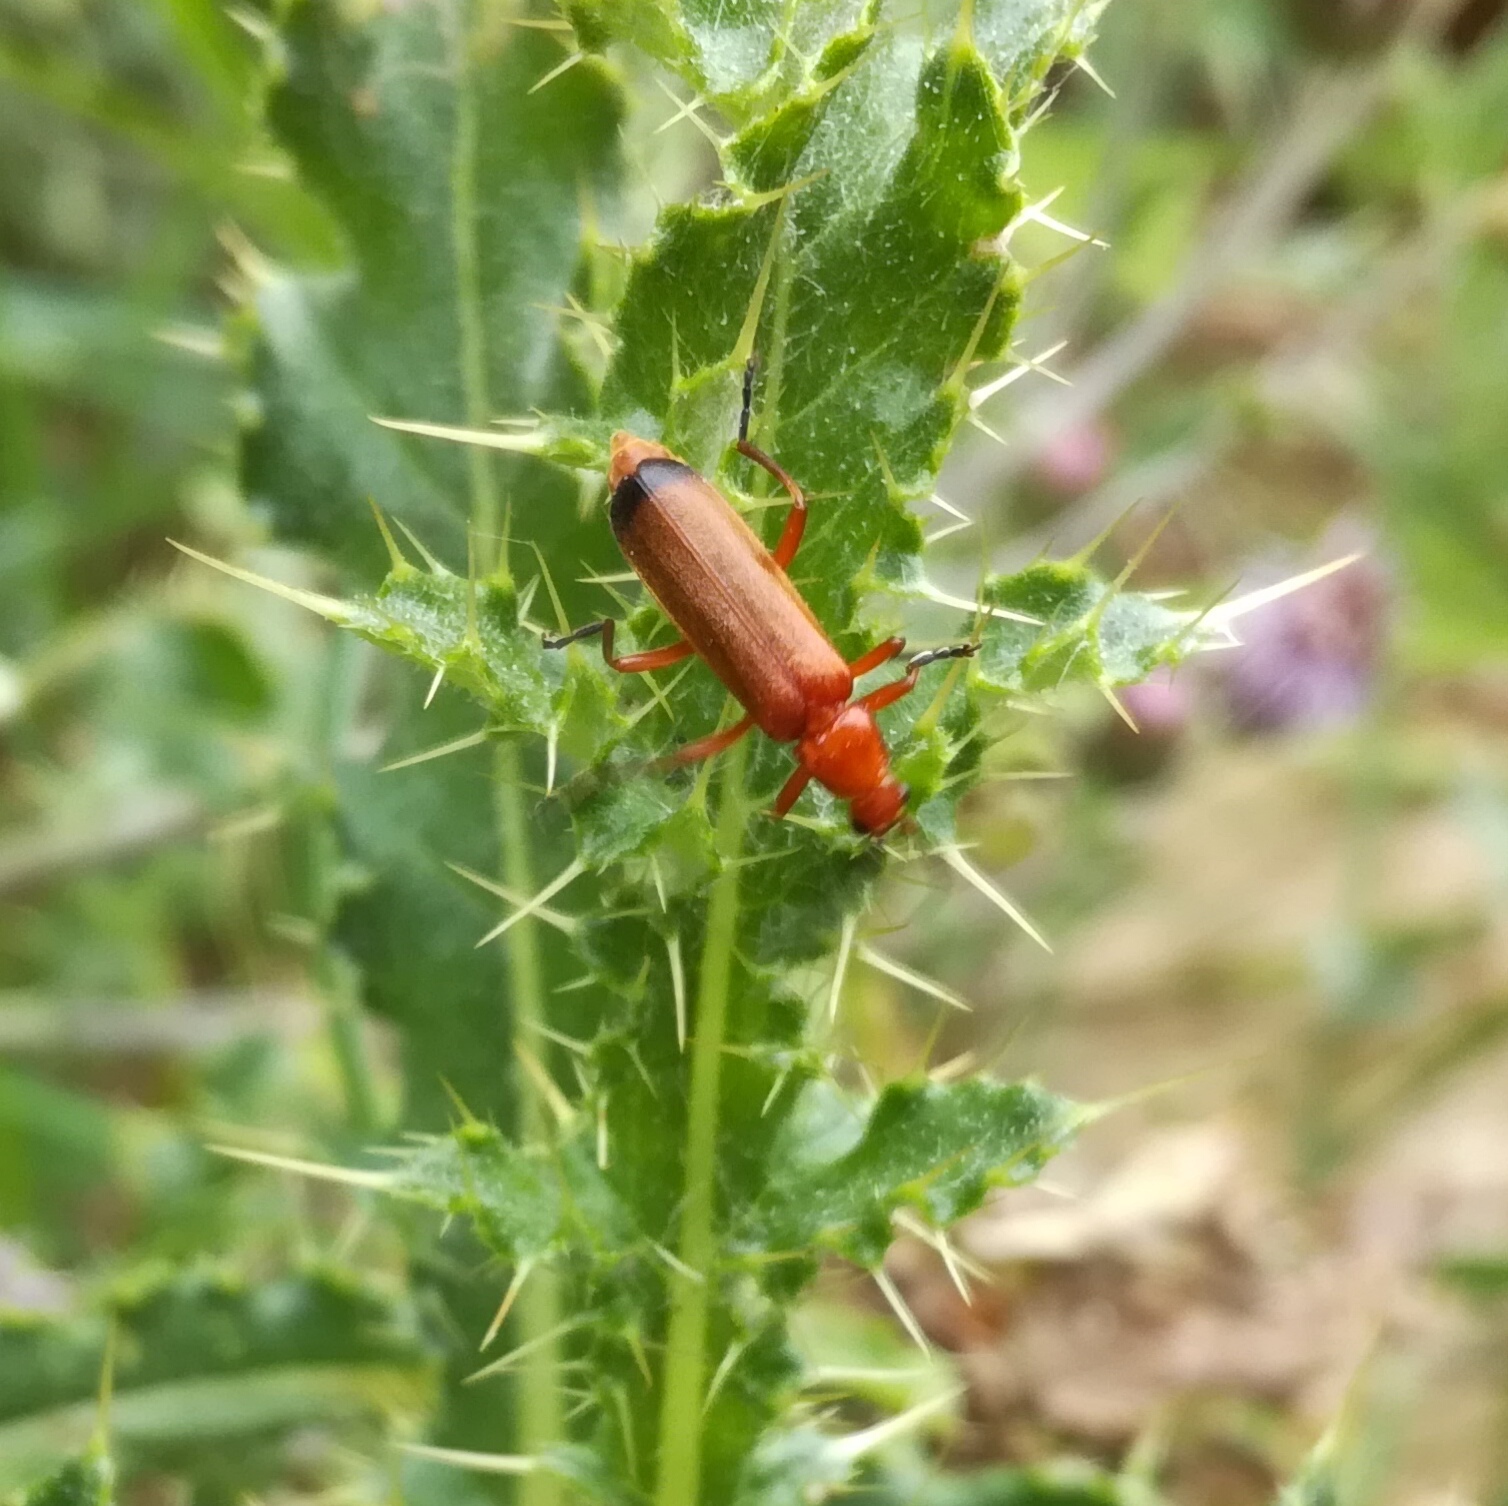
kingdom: Animalia
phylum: Arthropoda
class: Insecta
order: Coleoptera
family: Cantharidae
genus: Rhagonycha
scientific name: Rhagonycha fulva
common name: Common red soldier beetle
